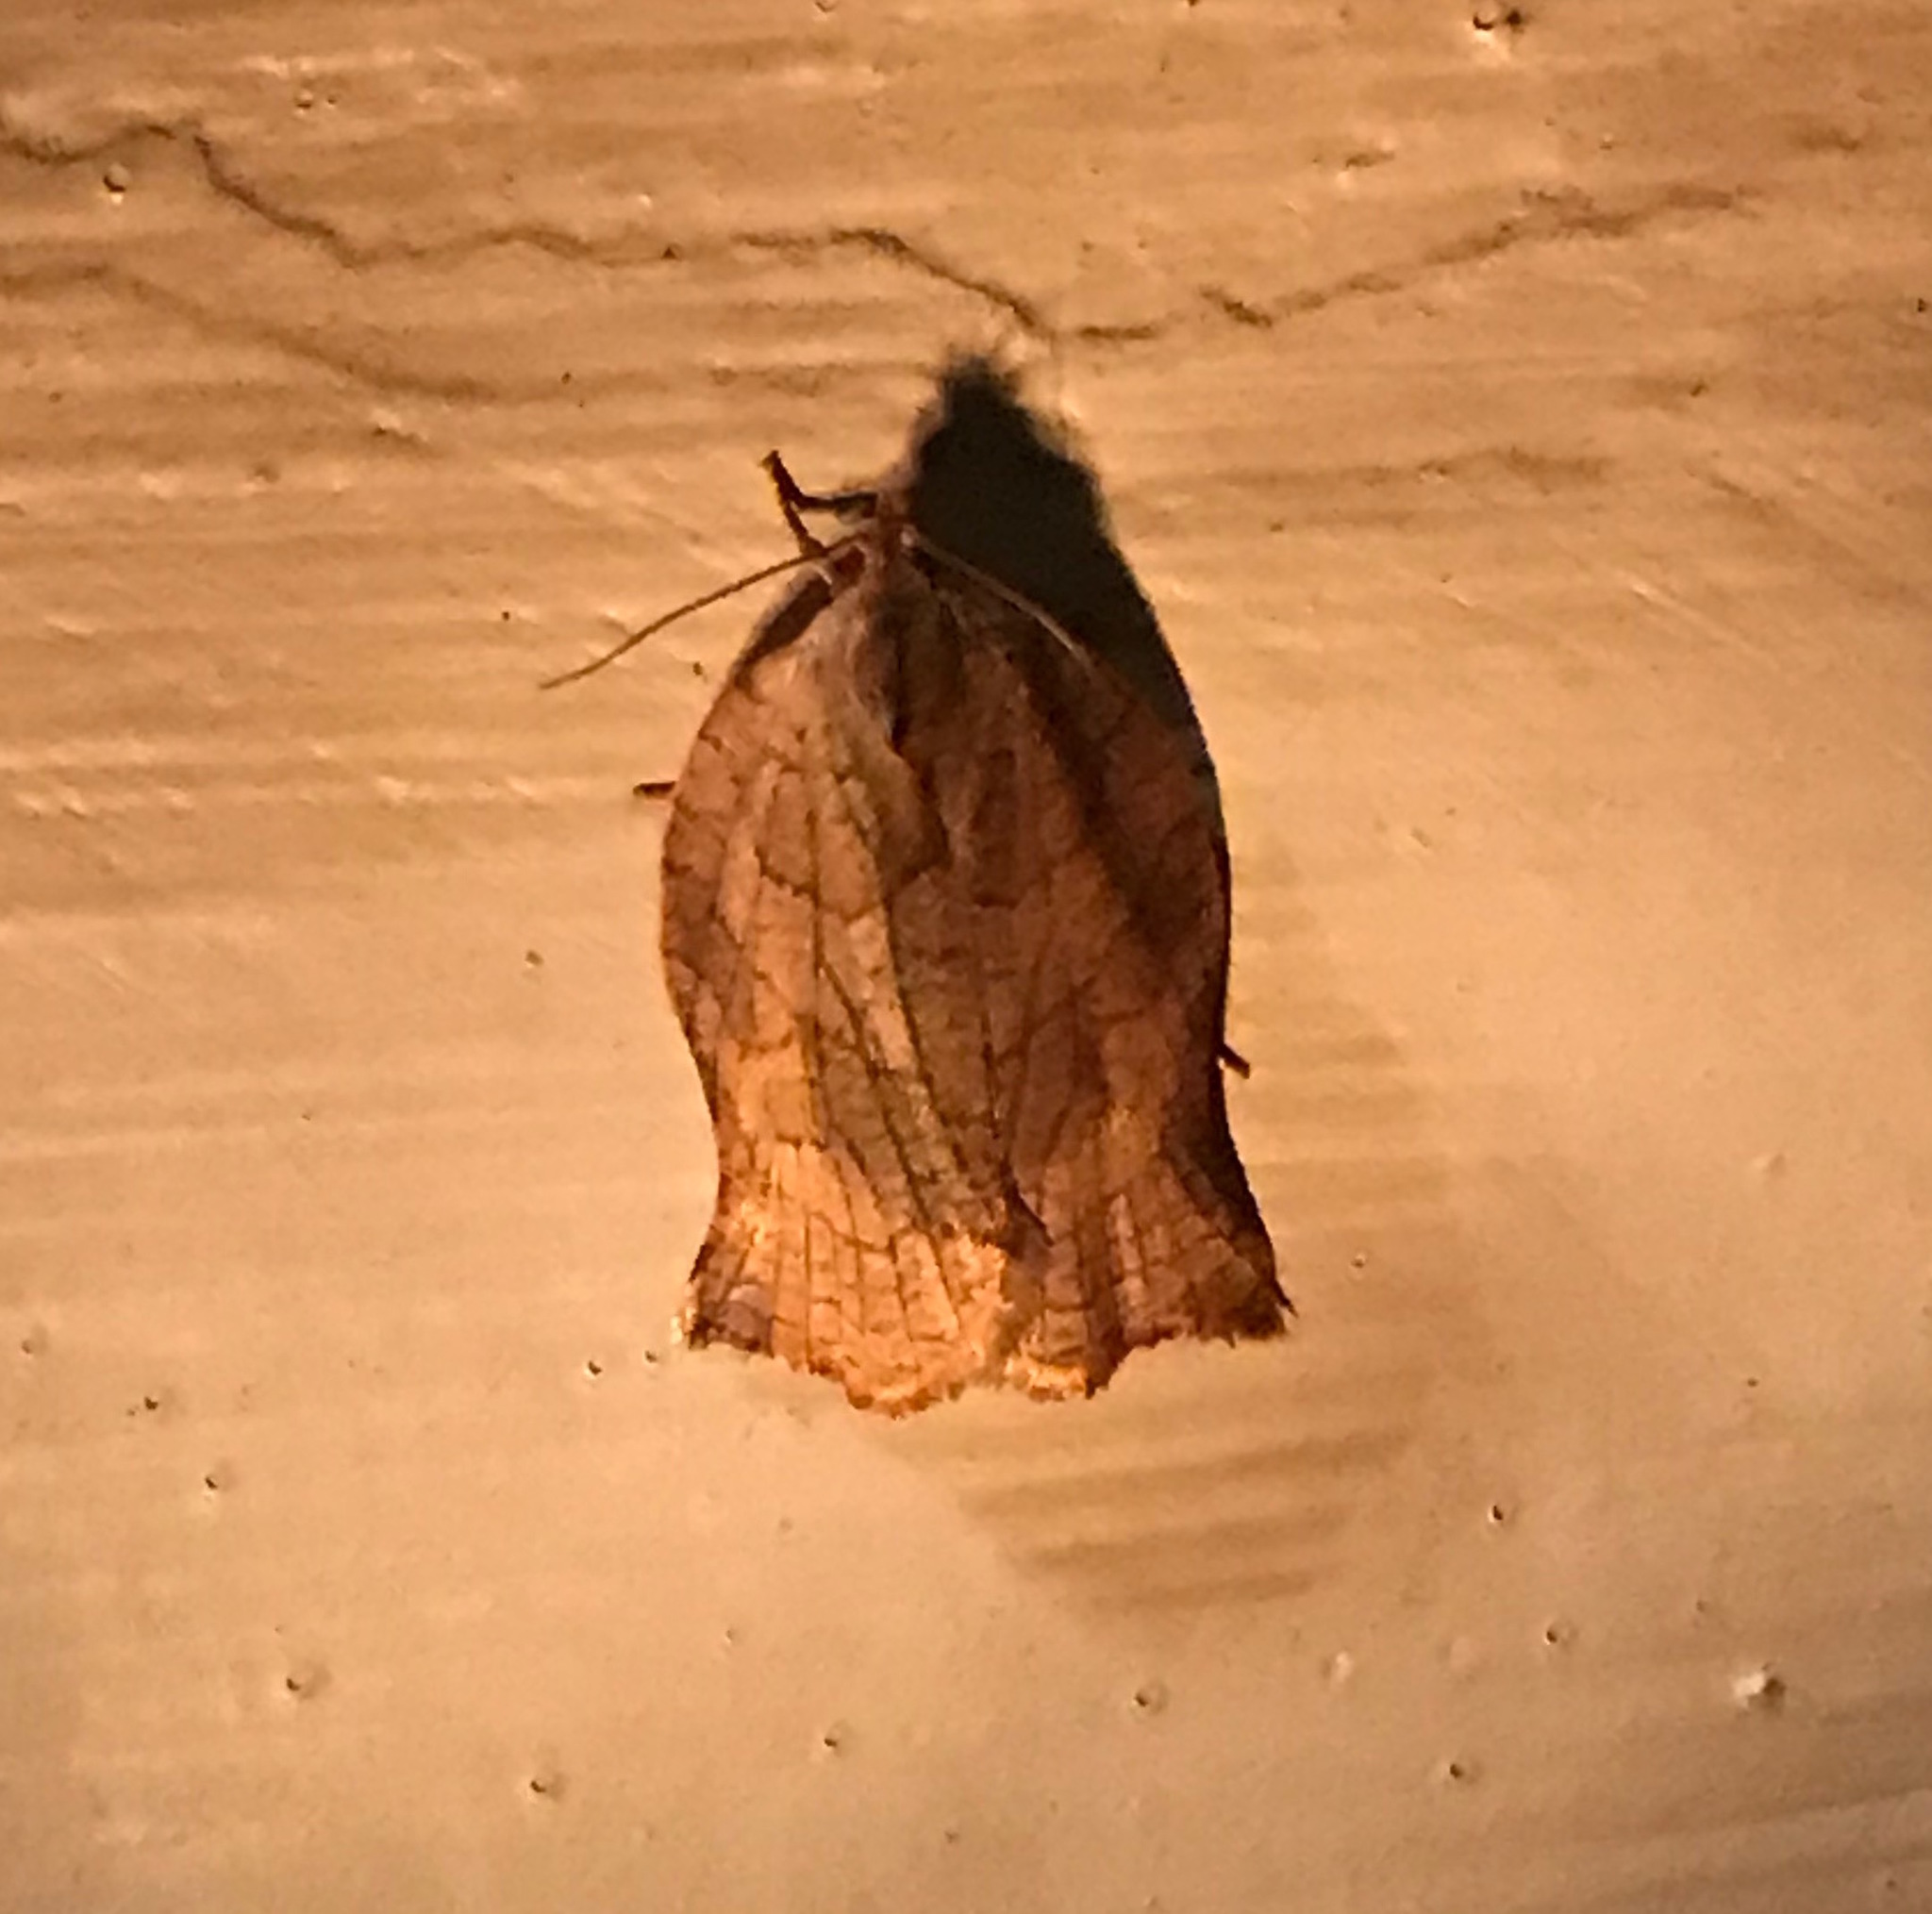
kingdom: Animalia
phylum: Arthropoda
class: Insecta
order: Lepidoptera
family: Tortricidae
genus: Archips
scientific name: Archips purpurana
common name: Omnivorous leafroller
